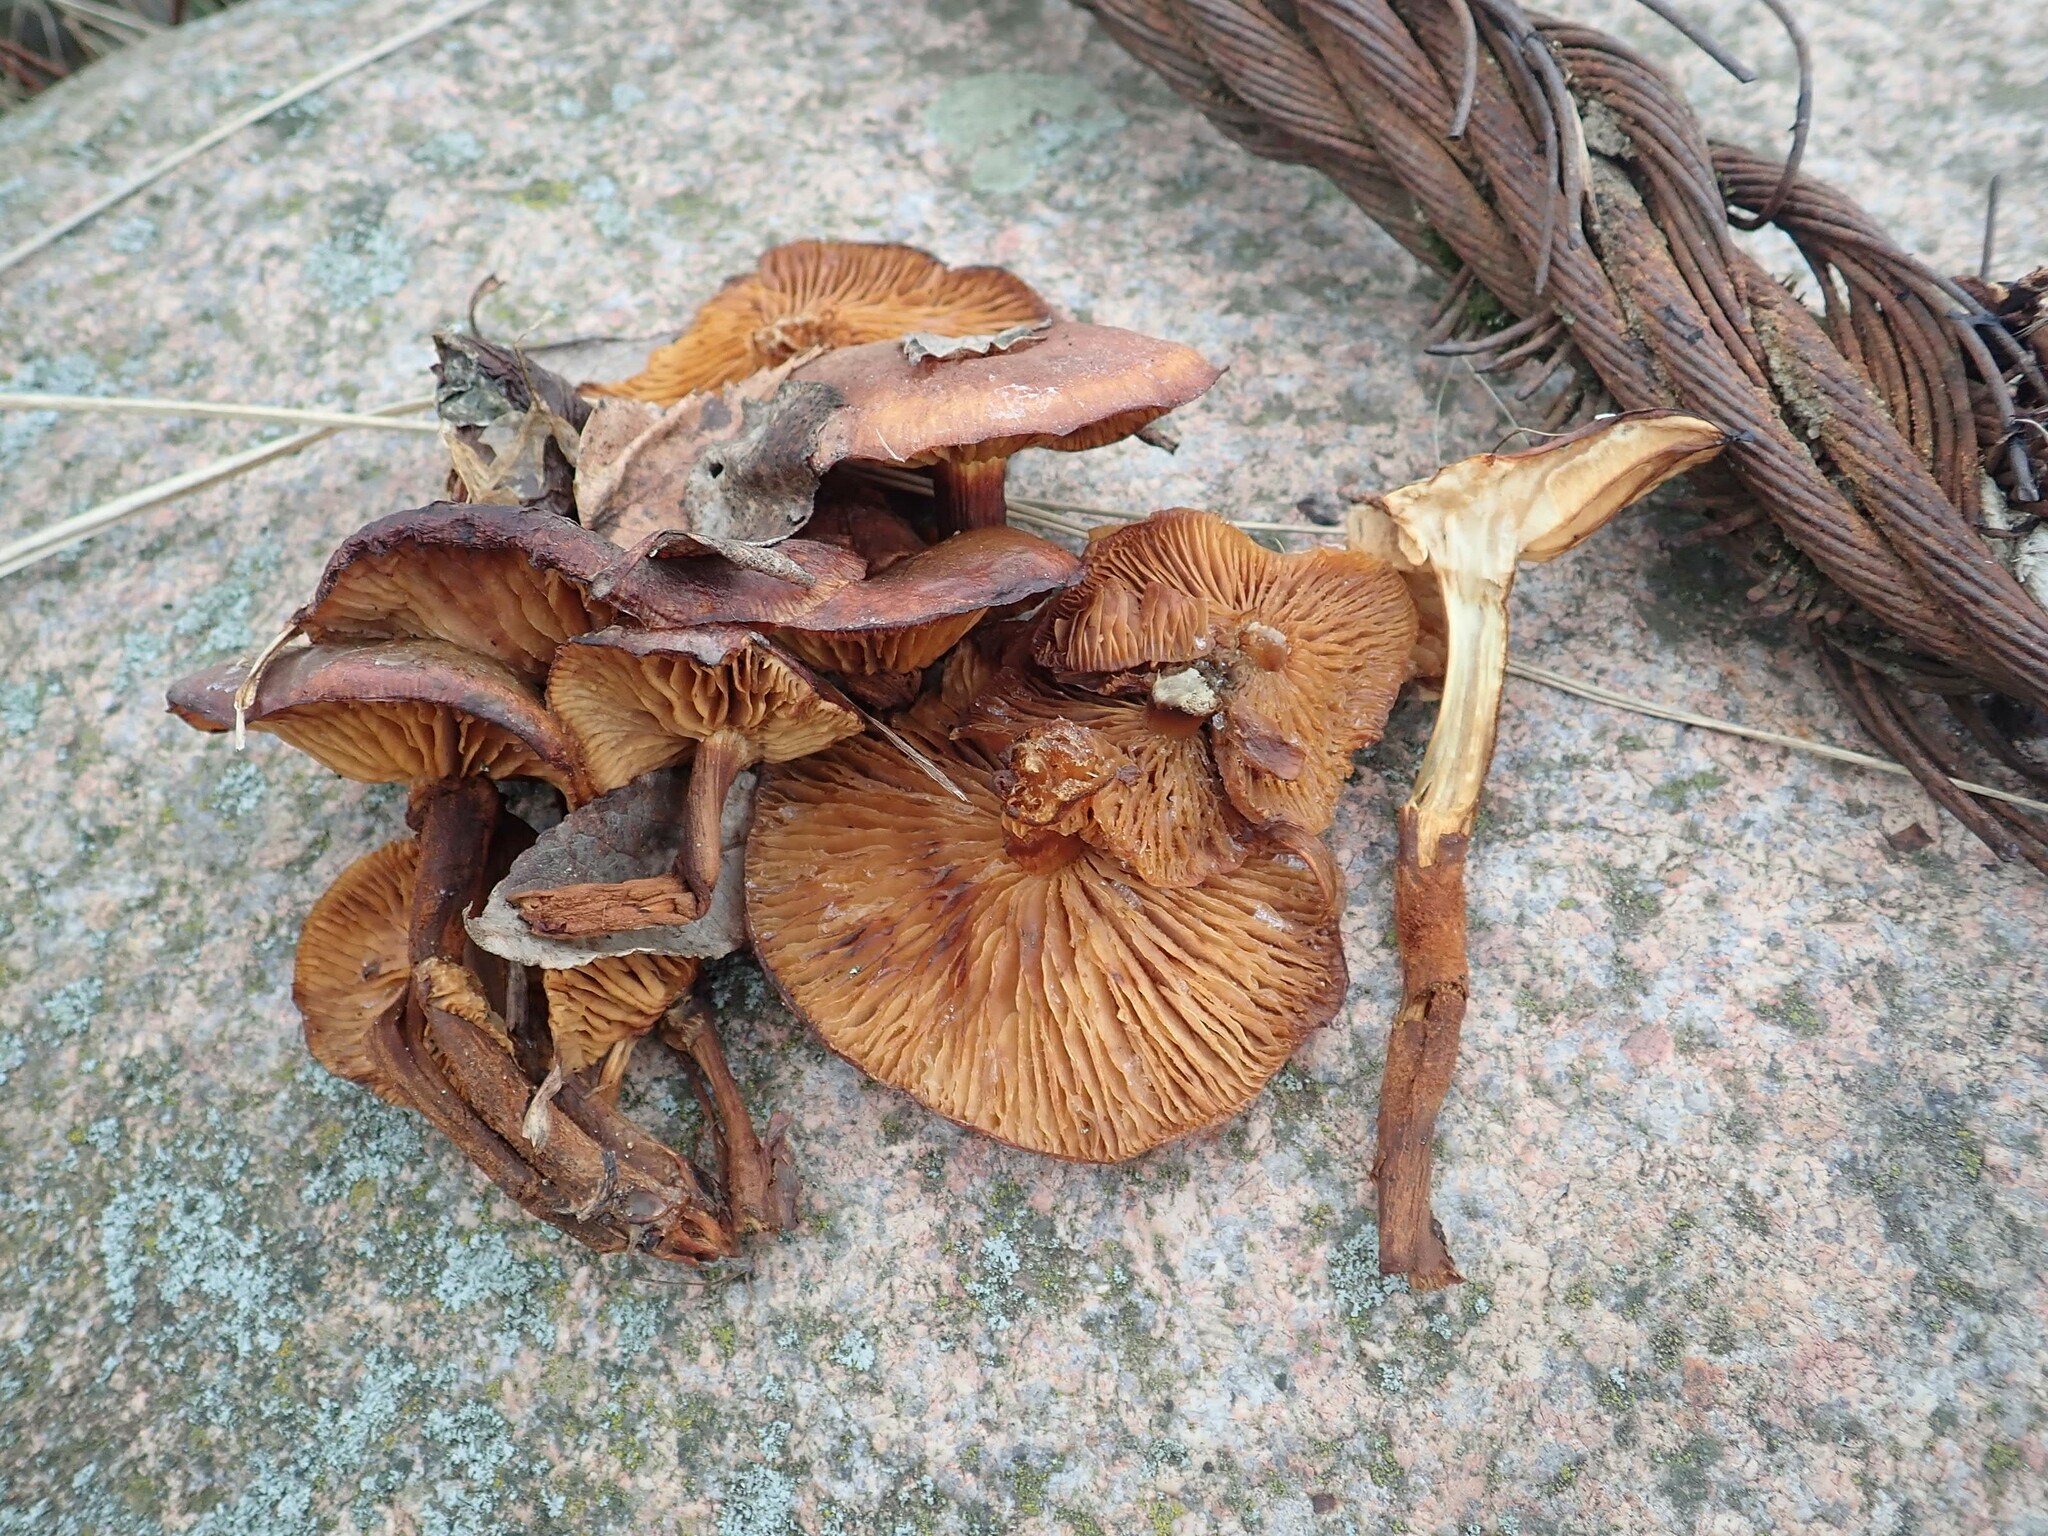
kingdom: Fungi
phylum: Basidiomycota
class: Agaricomycetes
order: Agaricales
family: Physalacriaceae
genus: Flammulina
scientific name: Flammulina
